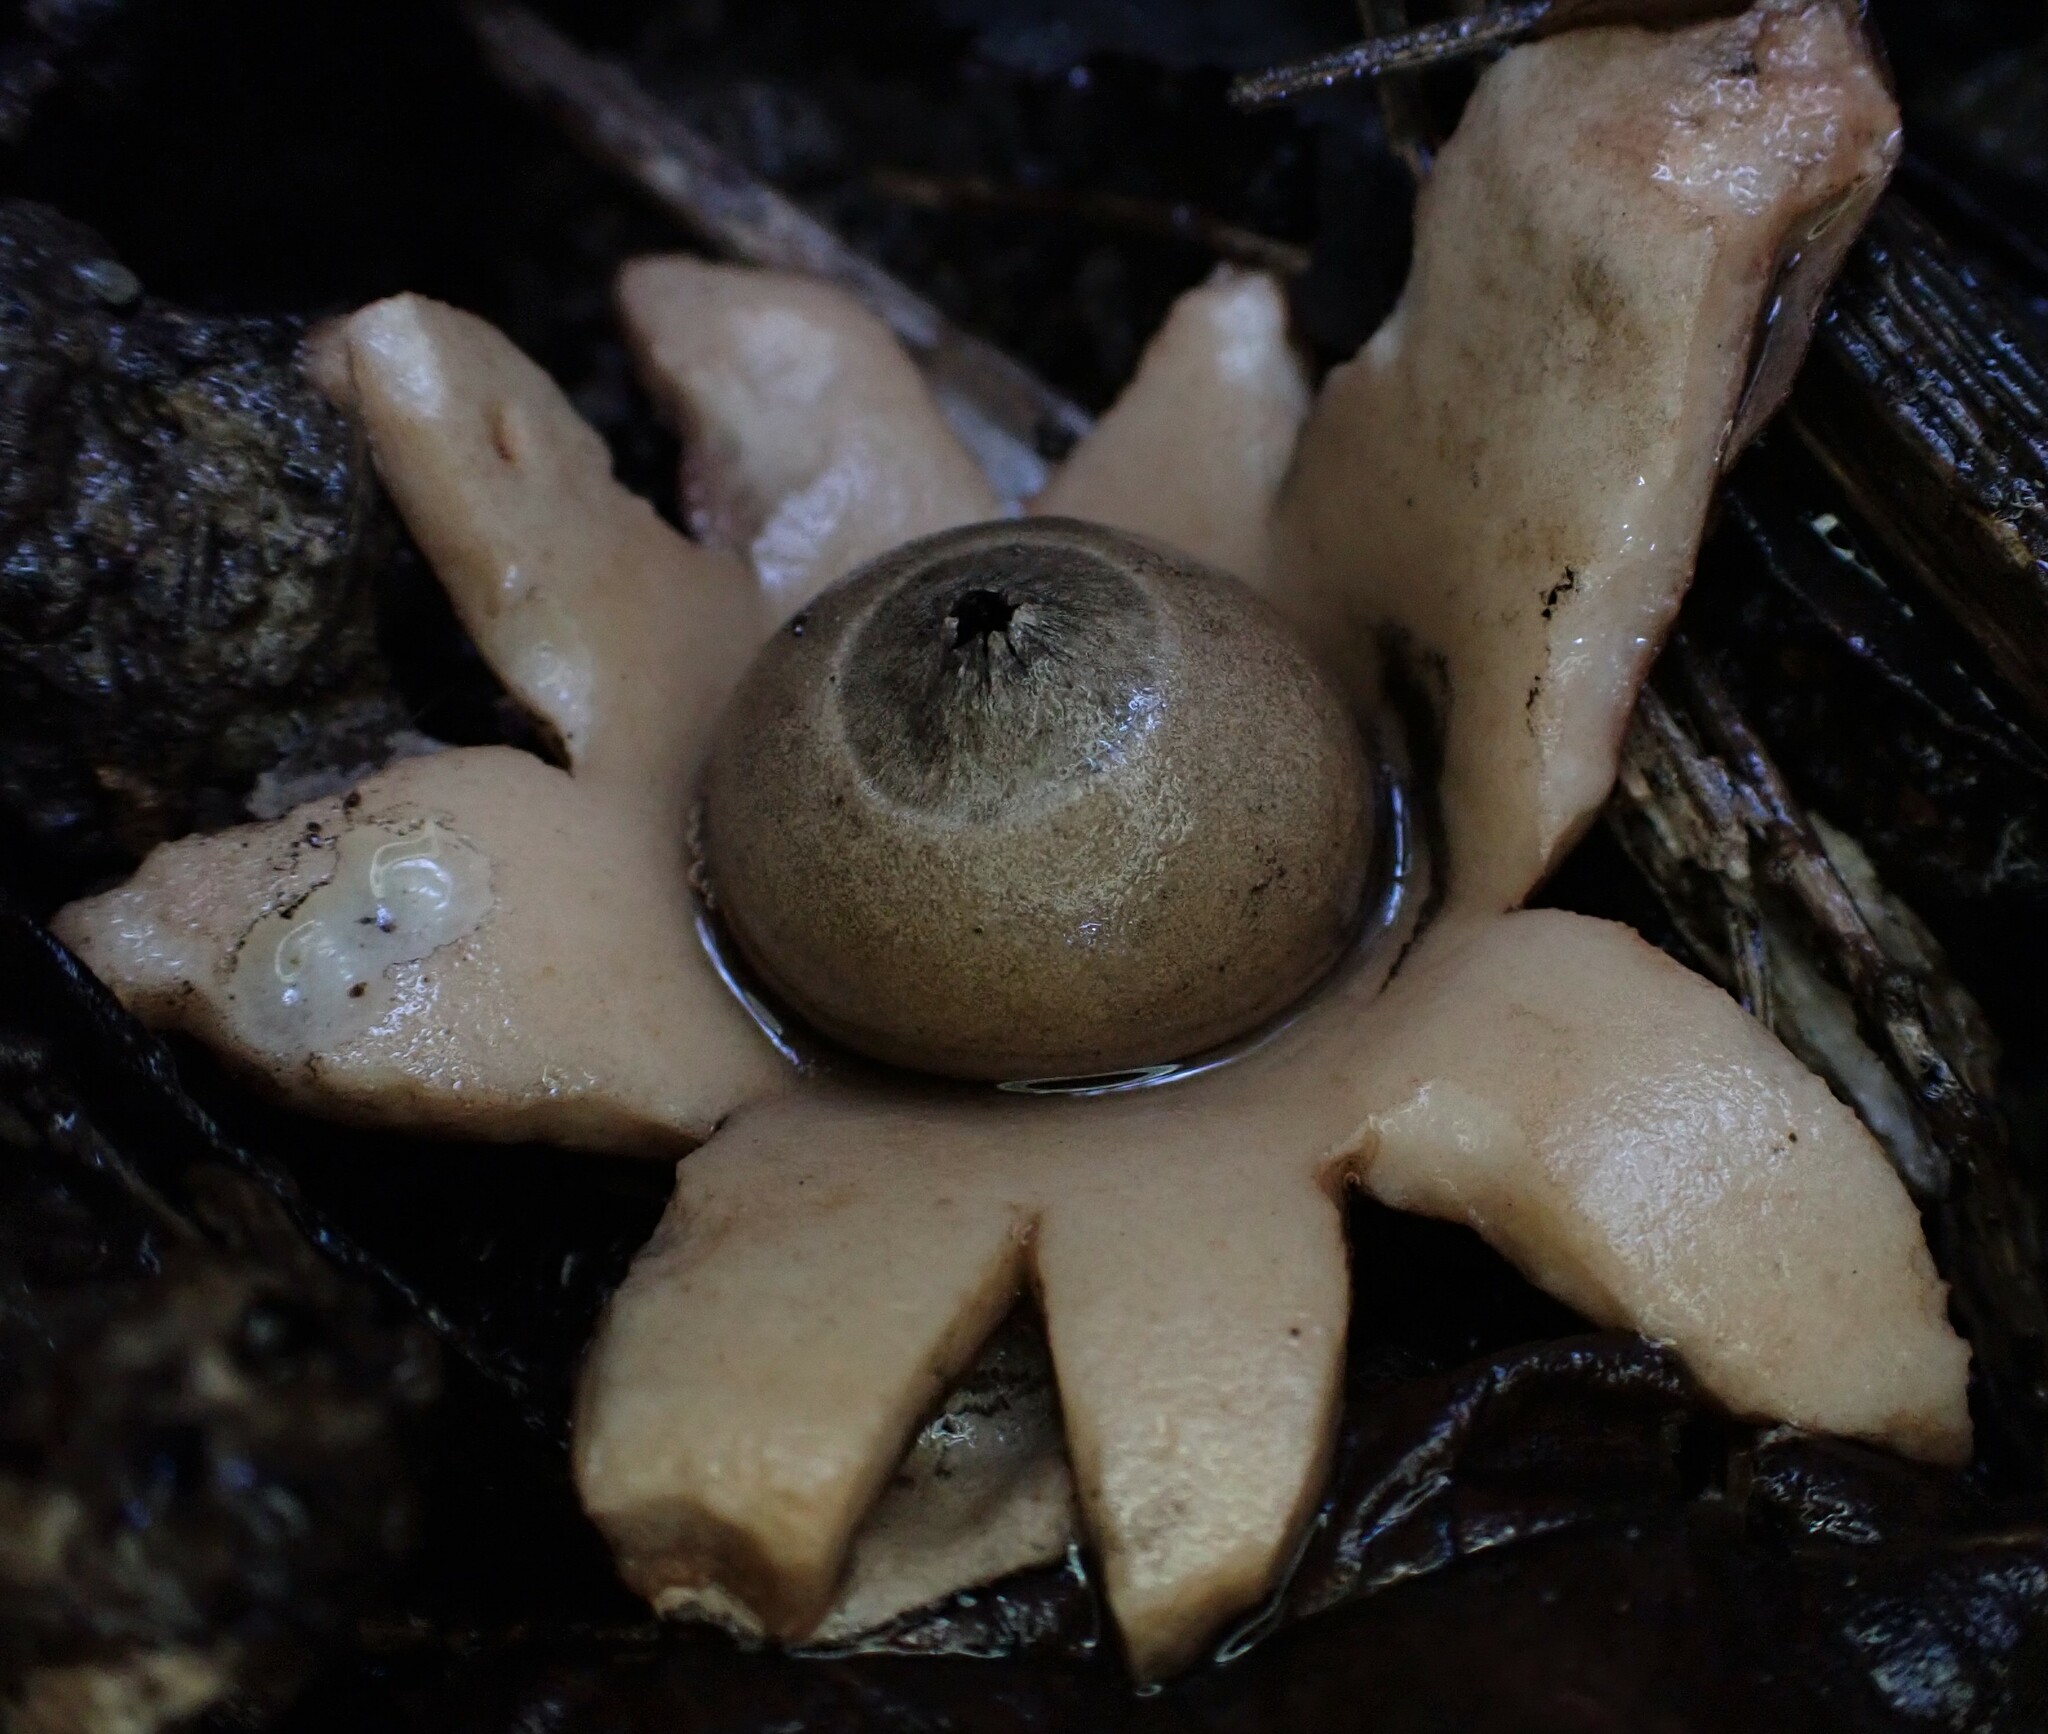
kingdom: Fungi
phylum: Basidiomycota
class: Agaricomycetes
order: Geastrales
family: Geastraceae
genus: Geastrum
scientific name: Geastrum triplex
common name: Collared earthstar
